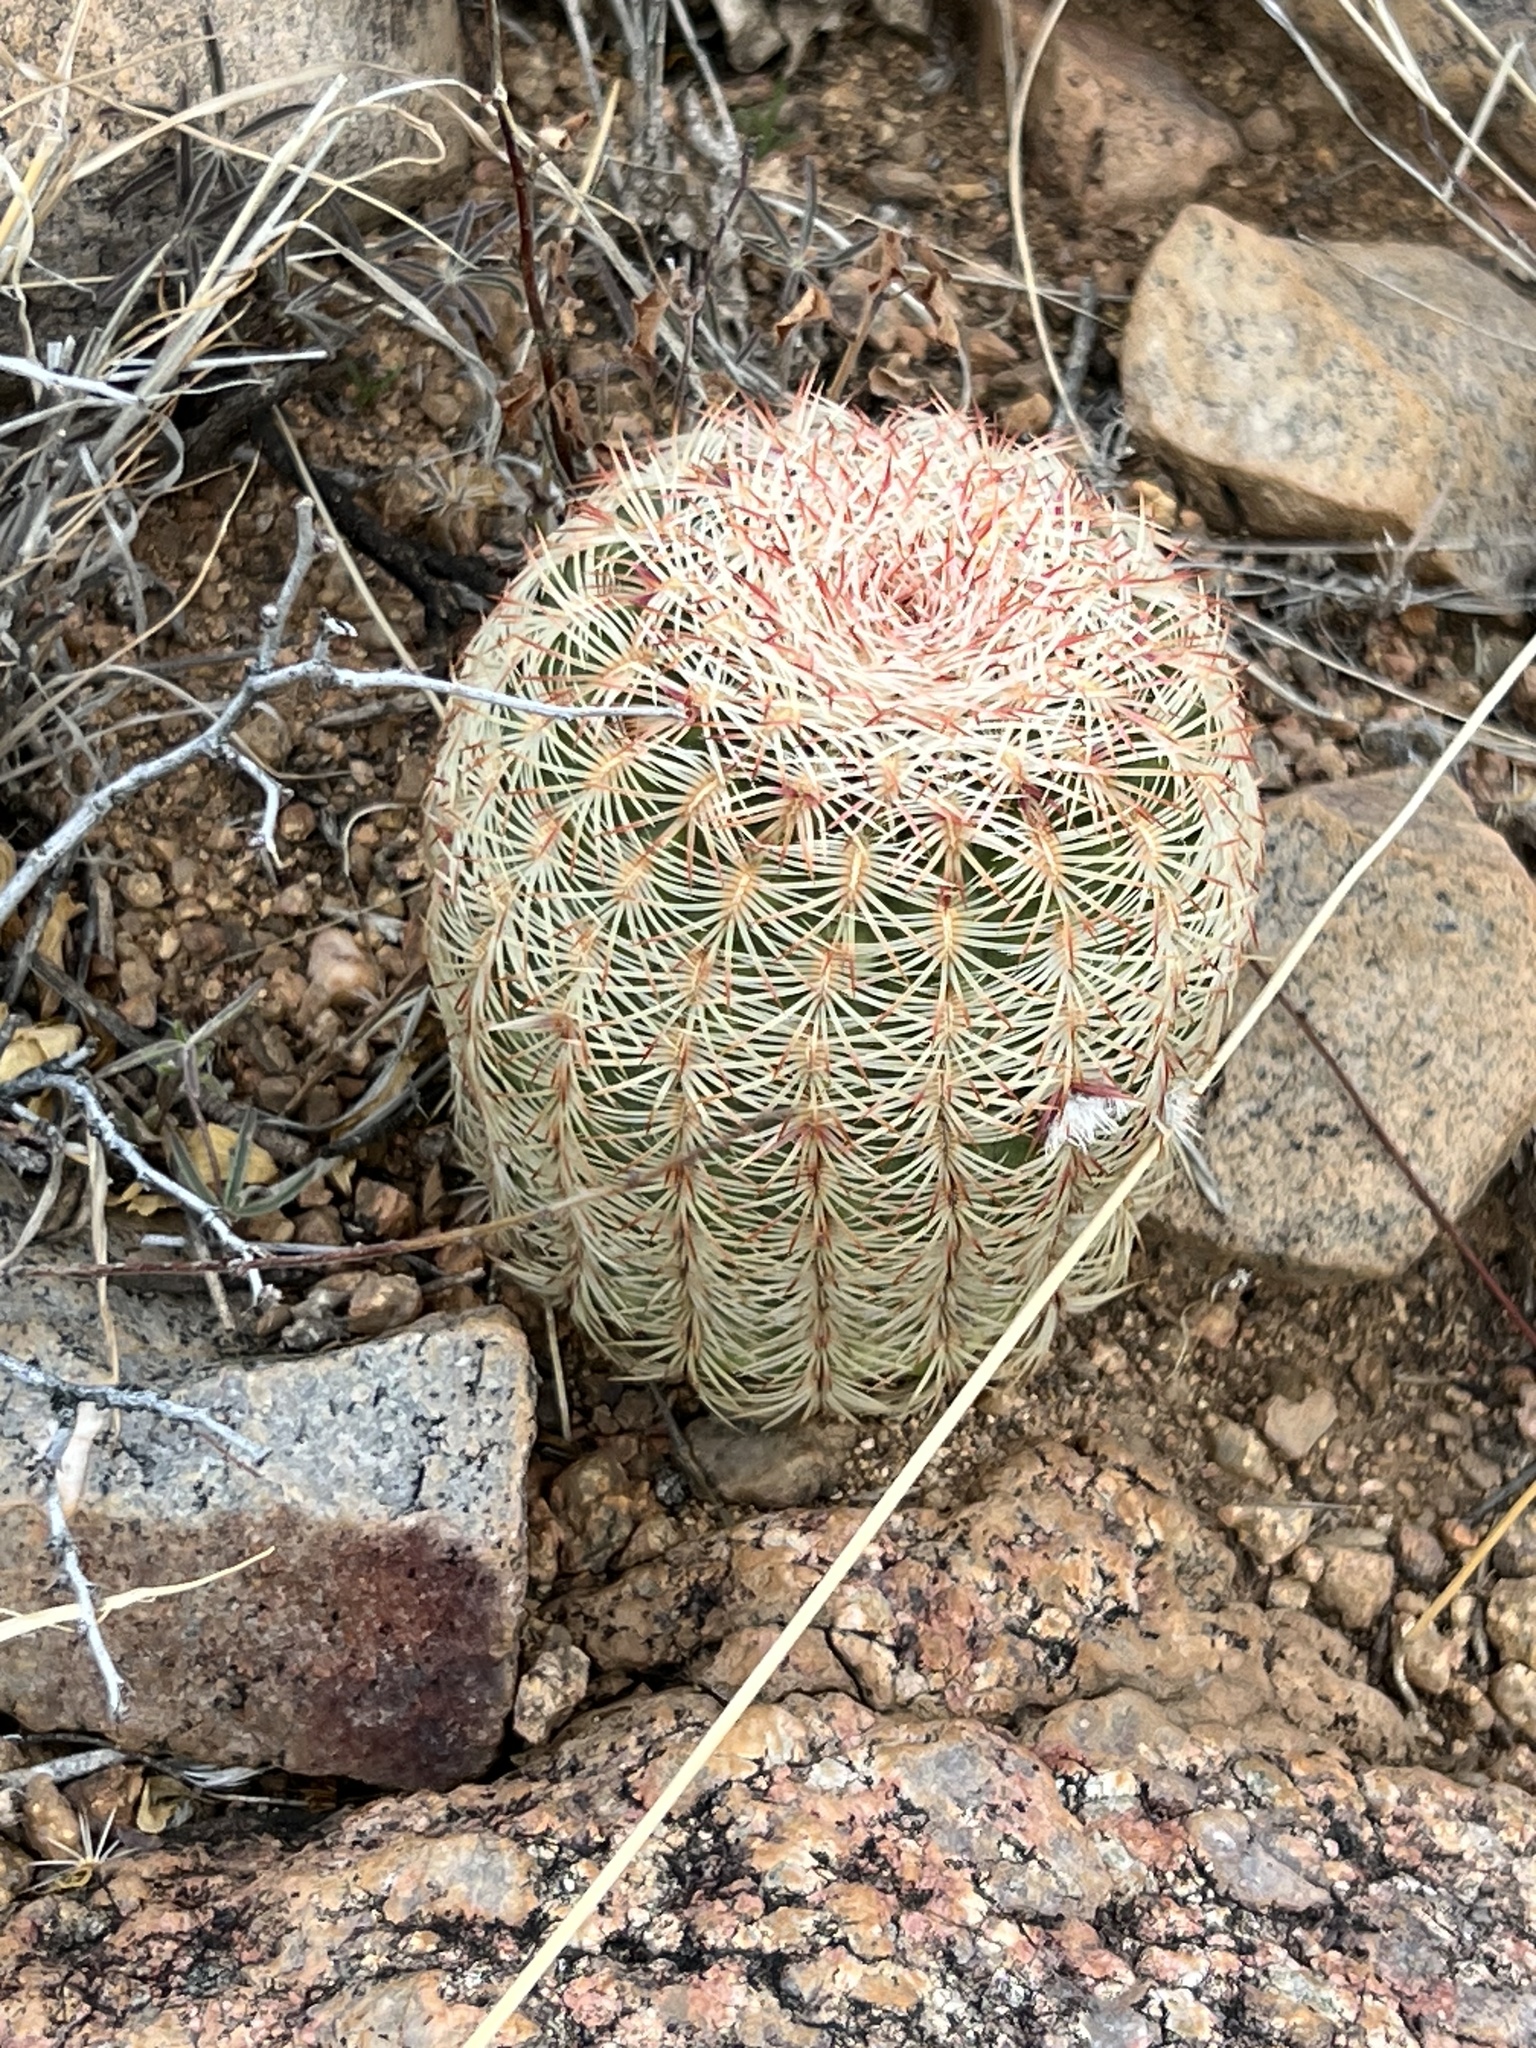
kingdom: Plantae
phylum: Tracheophyta
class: Magnoliopsida
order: Caryophyllales
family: Cactaceae
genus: Echinocereus
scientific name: Echinocereus rigidissimus
